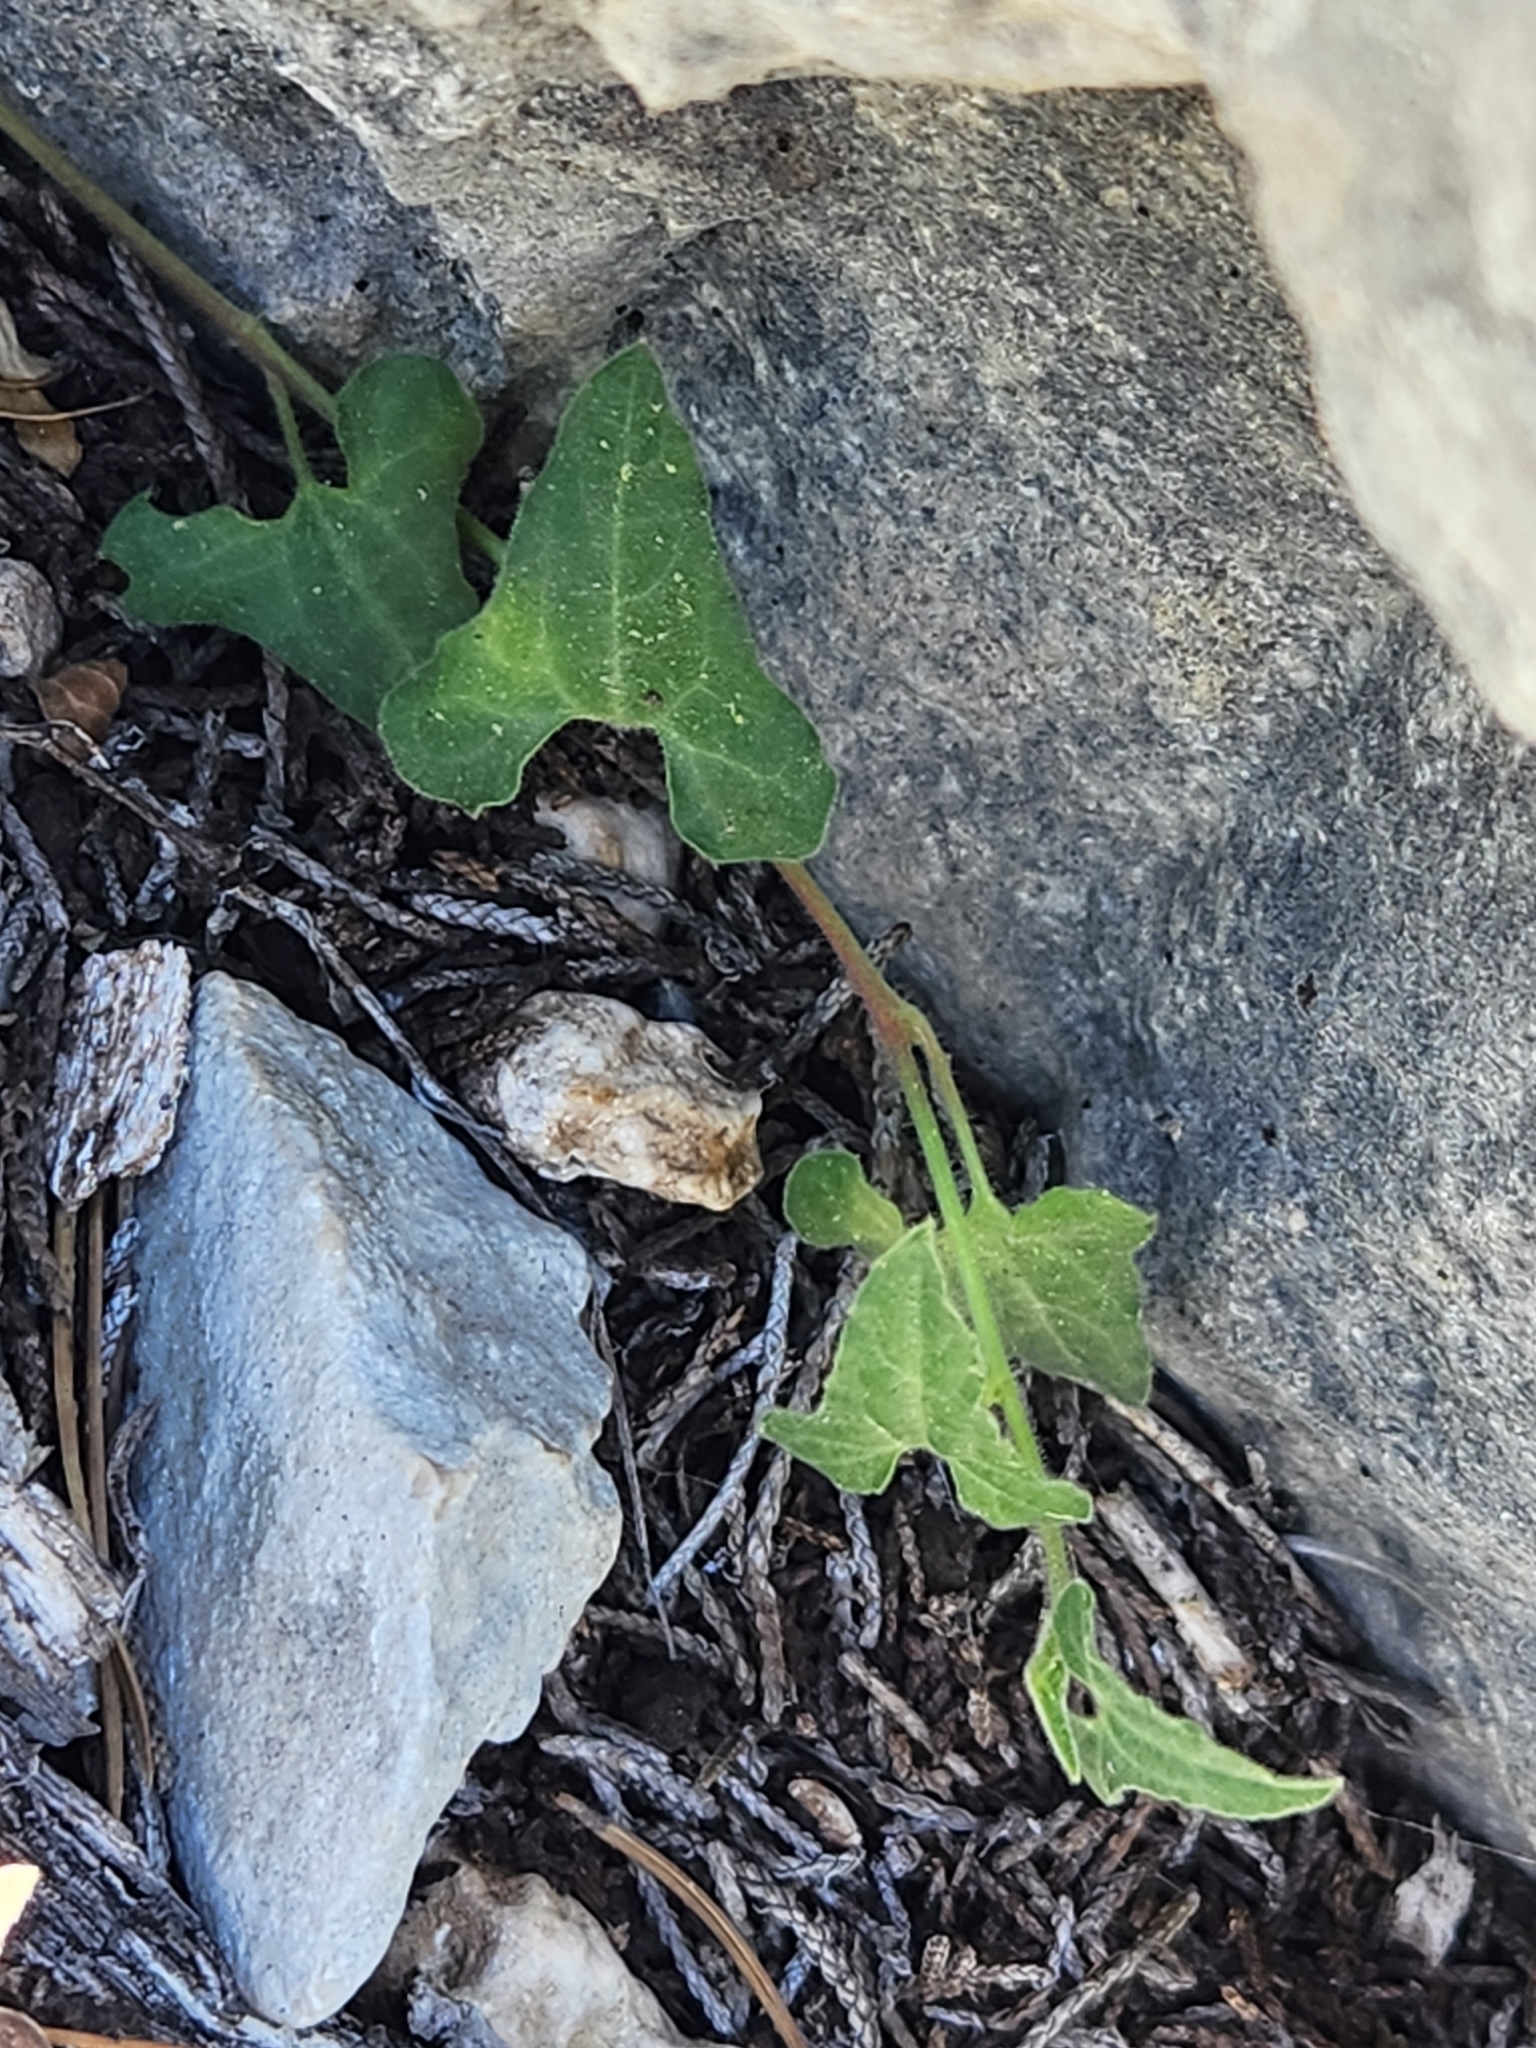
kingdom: Plantae
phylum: Tracheophyta
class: Magnoliopsida
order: Piperales
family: Aristolochiaceae
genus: Aristolochia
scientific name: Aristolochia coryi
